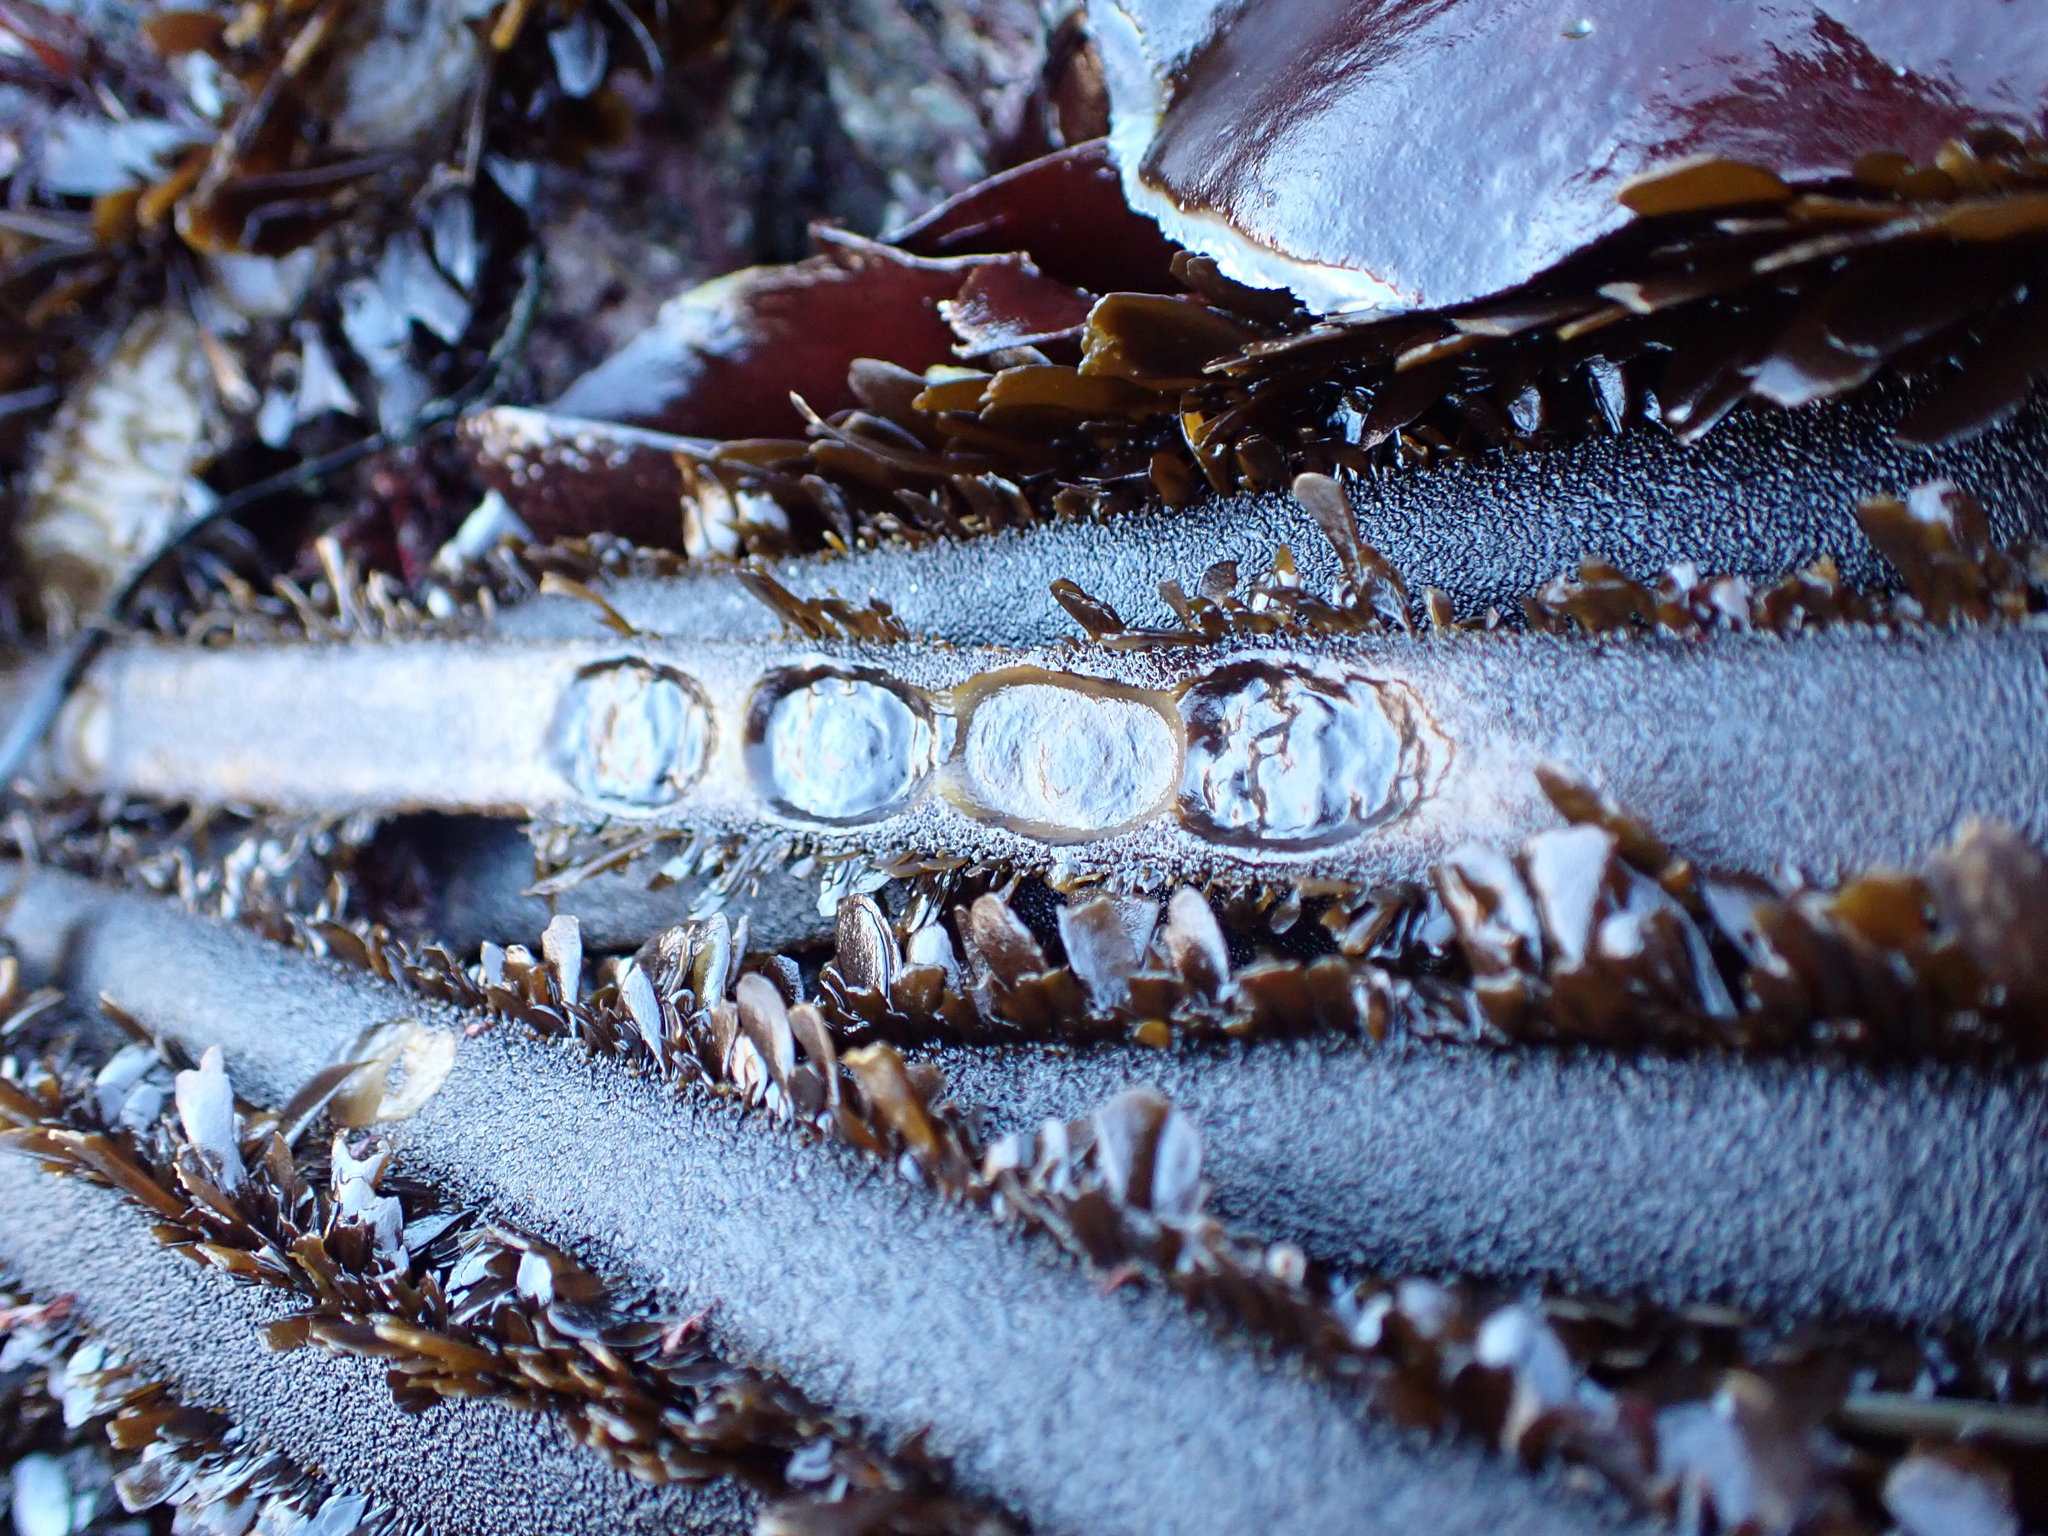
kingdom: Animalia
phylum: Mollusca
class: Gastropoda
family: Lottiidae
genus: Discurria
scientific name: Discurria insessa
